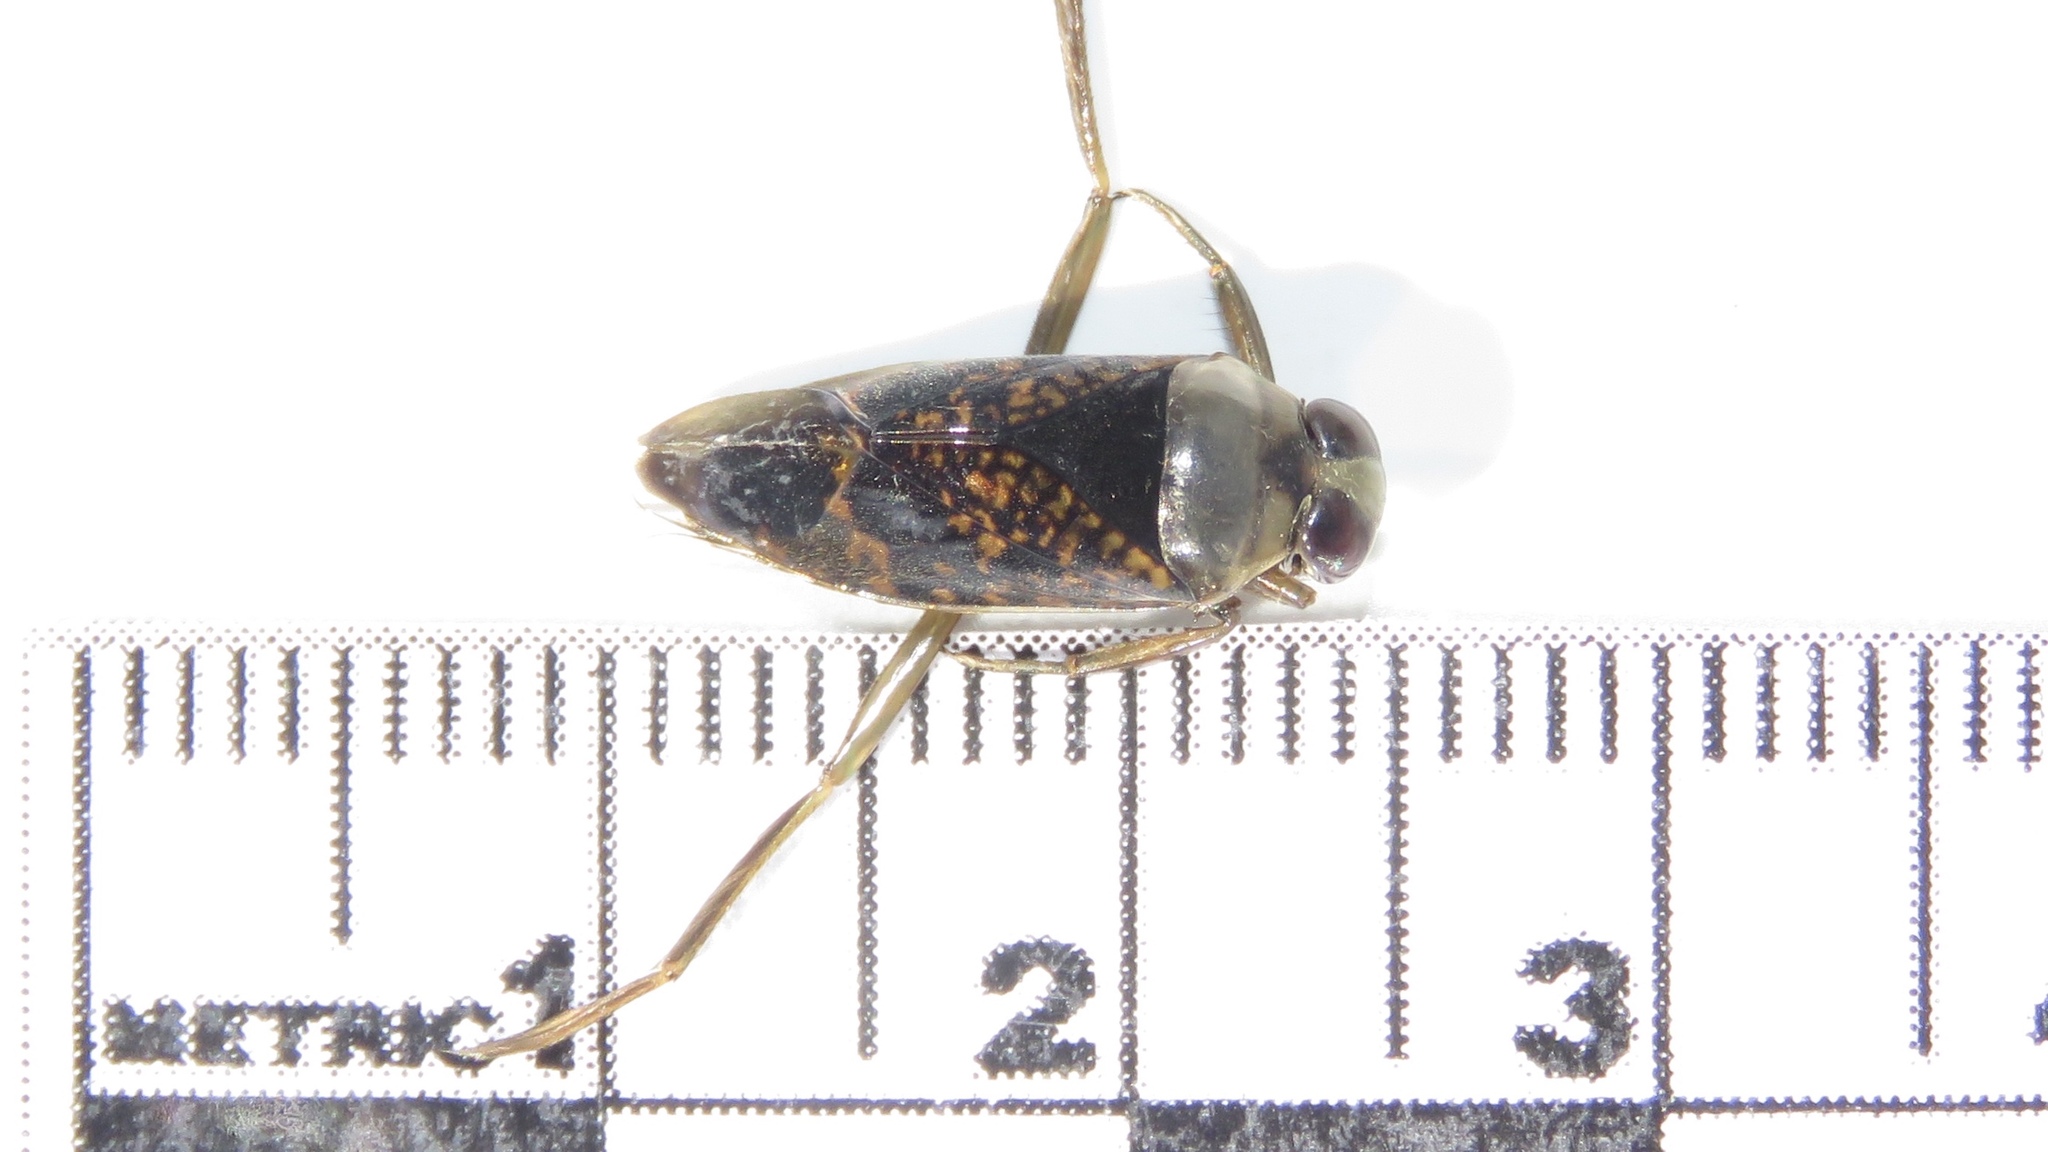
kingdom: Animalia
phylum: Arthropoda
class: Insecta
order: Hemiptera
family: Notonectidae
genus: Notonecta
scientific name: Notonecta irrorata
